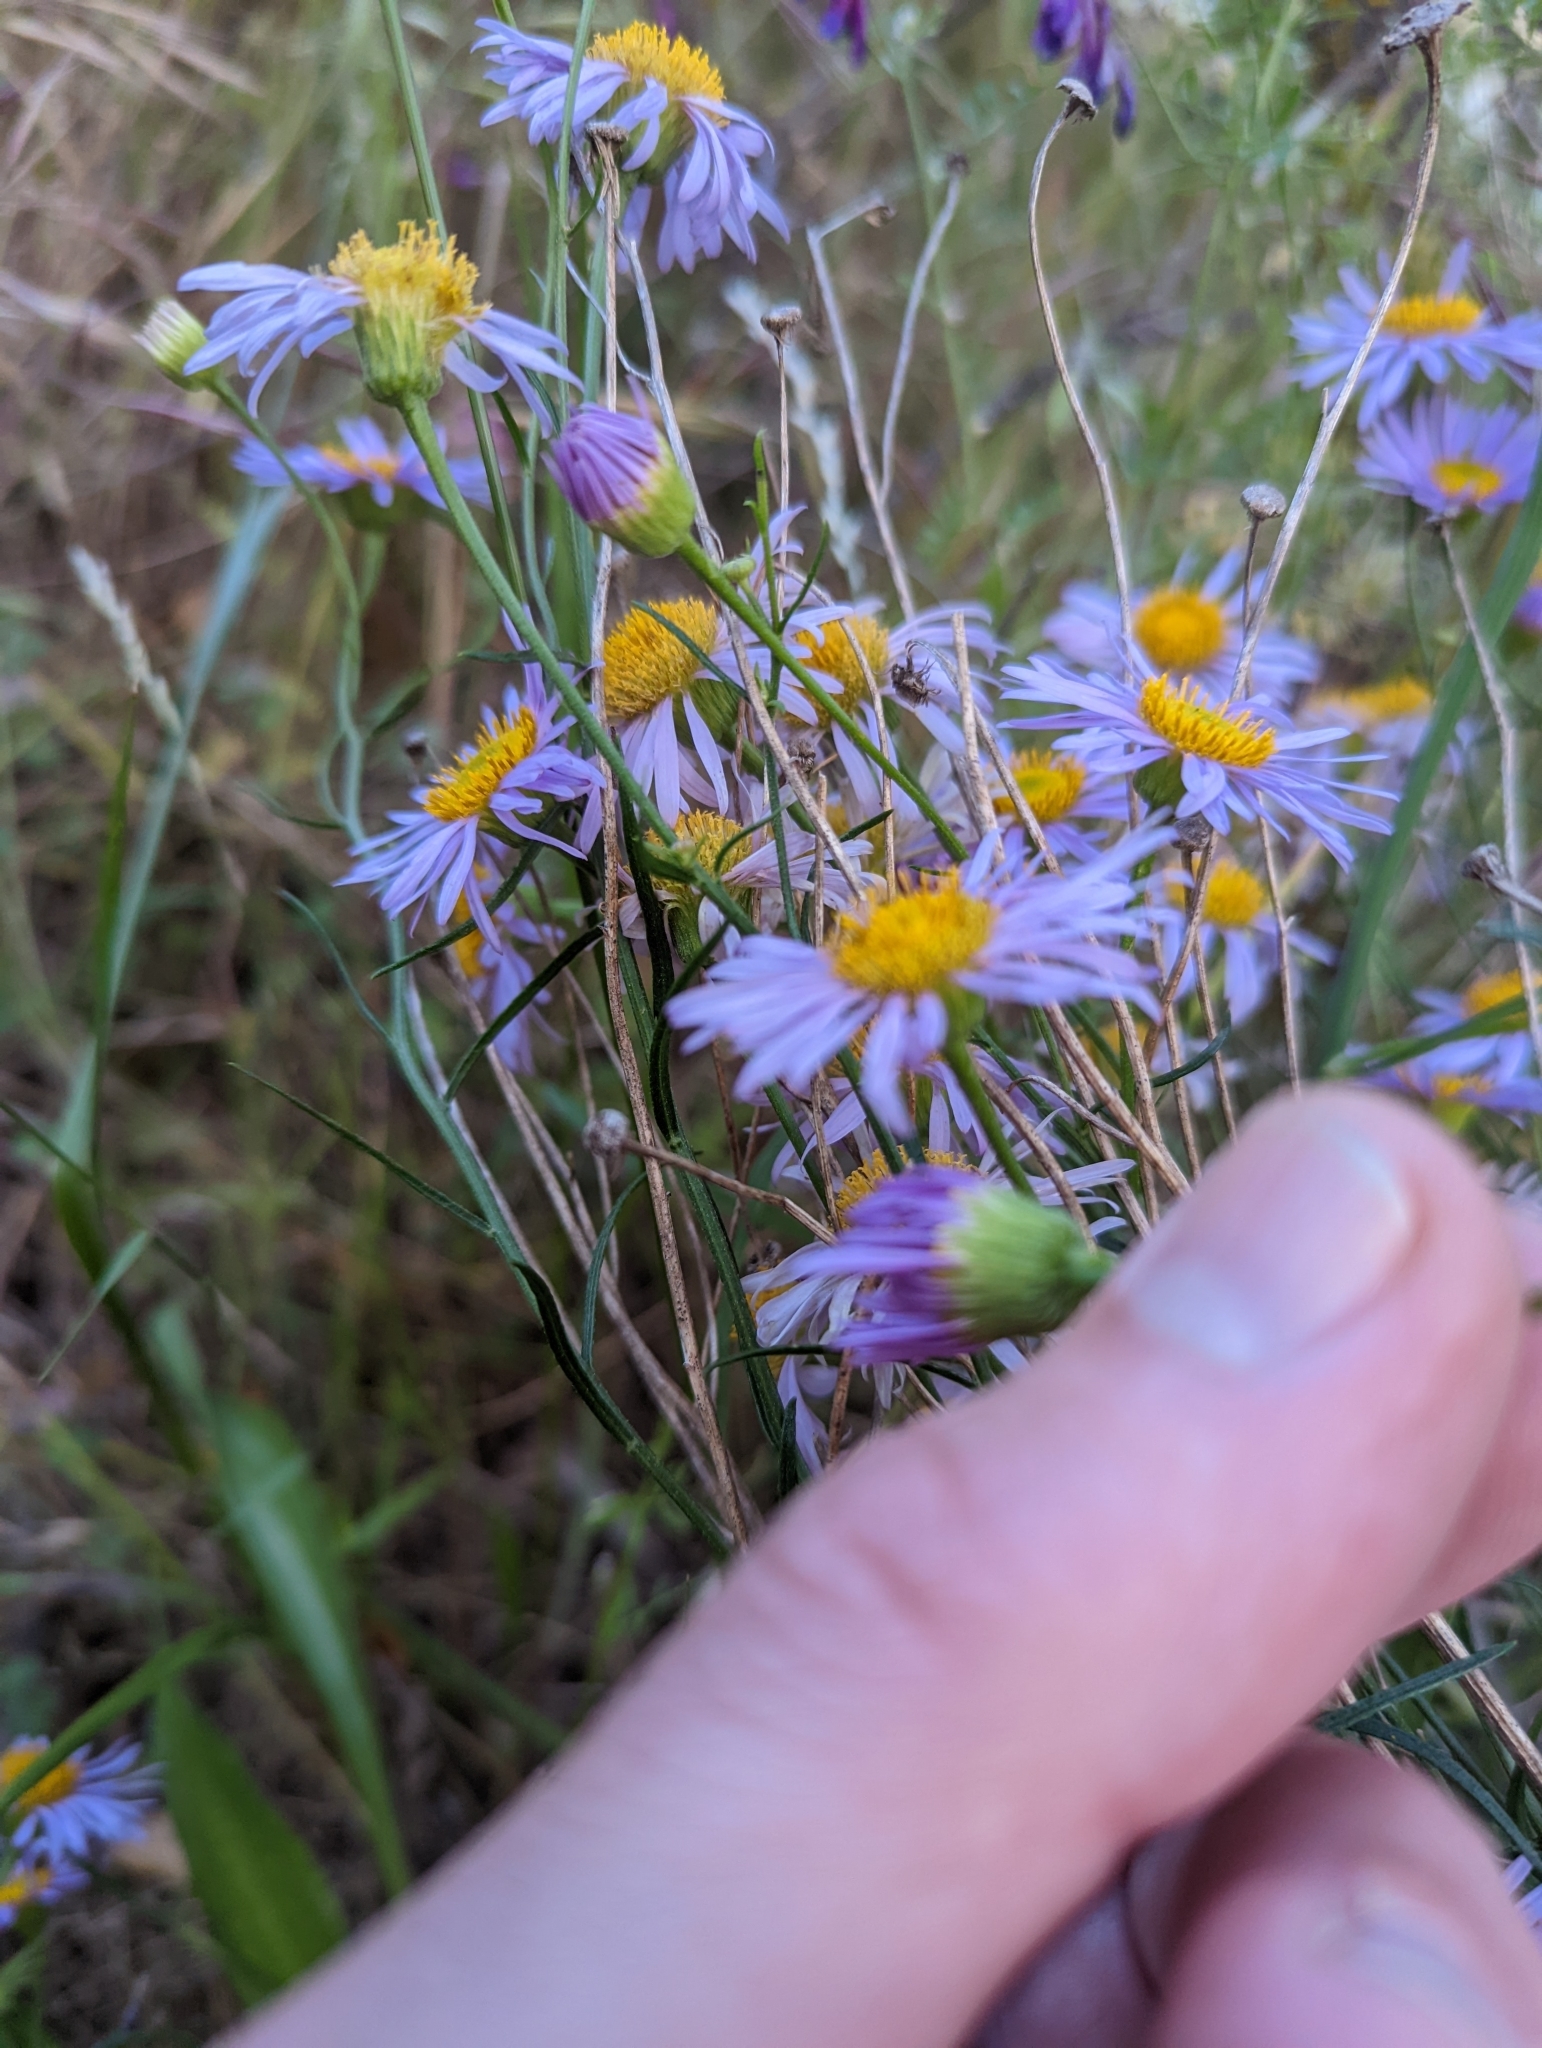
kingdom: Plantae
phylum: Tracheophyta
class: Magnoliopsida
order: Asterales
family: Asteraceae
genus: Erigeron
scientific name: Erigeron foliosus
